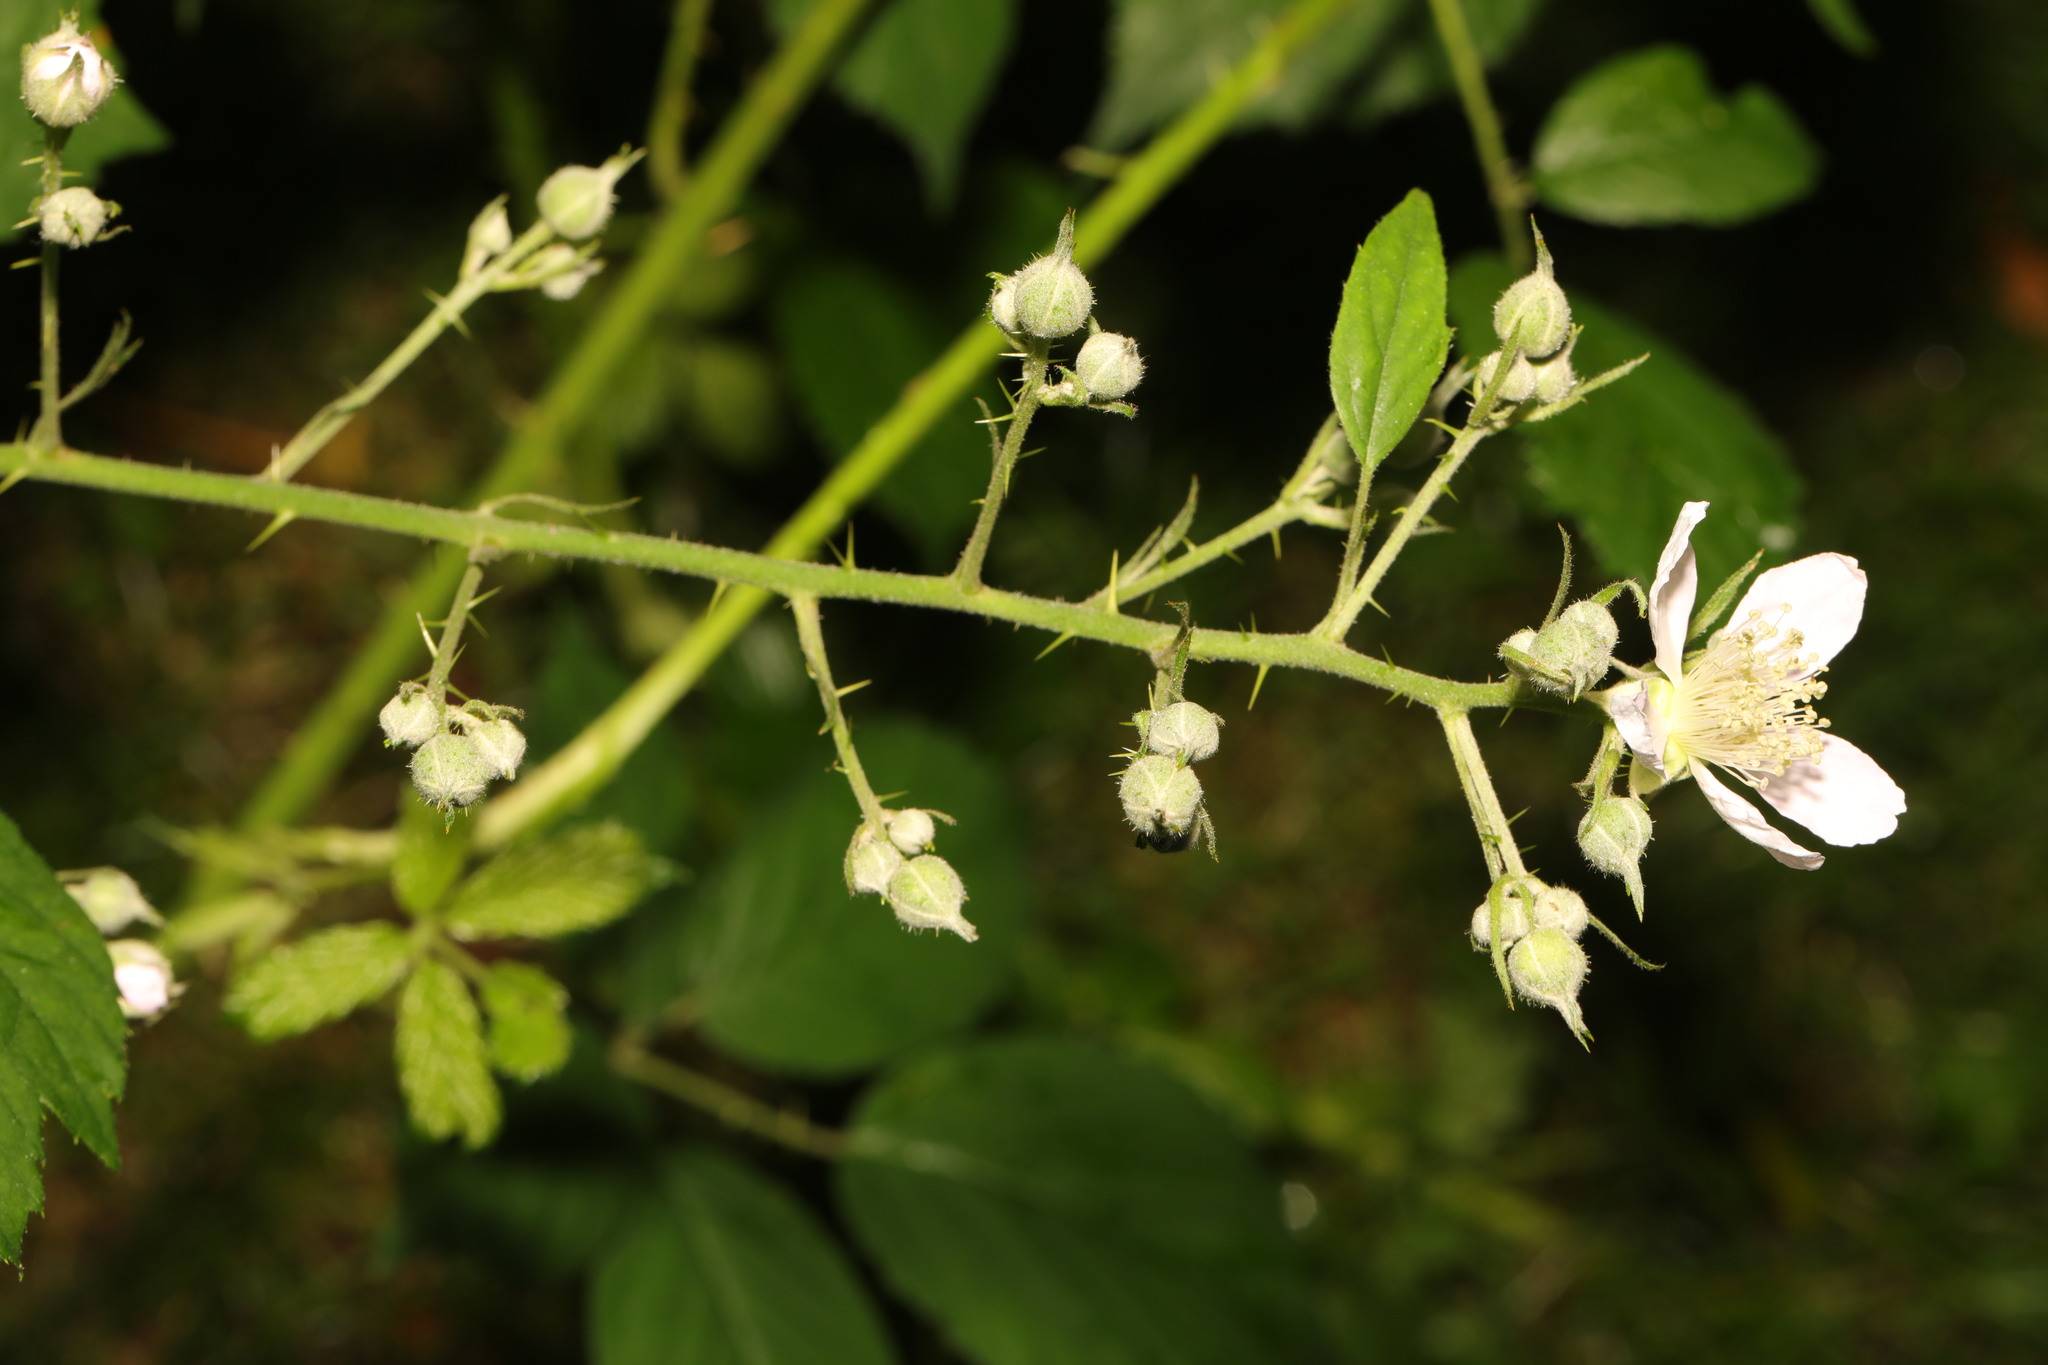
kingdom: Plantae
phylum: Tracheophyta
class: Magnoliopsida
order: Rosales
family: Rosaceae
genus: Rubus
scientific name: Rubus cissburiensis
